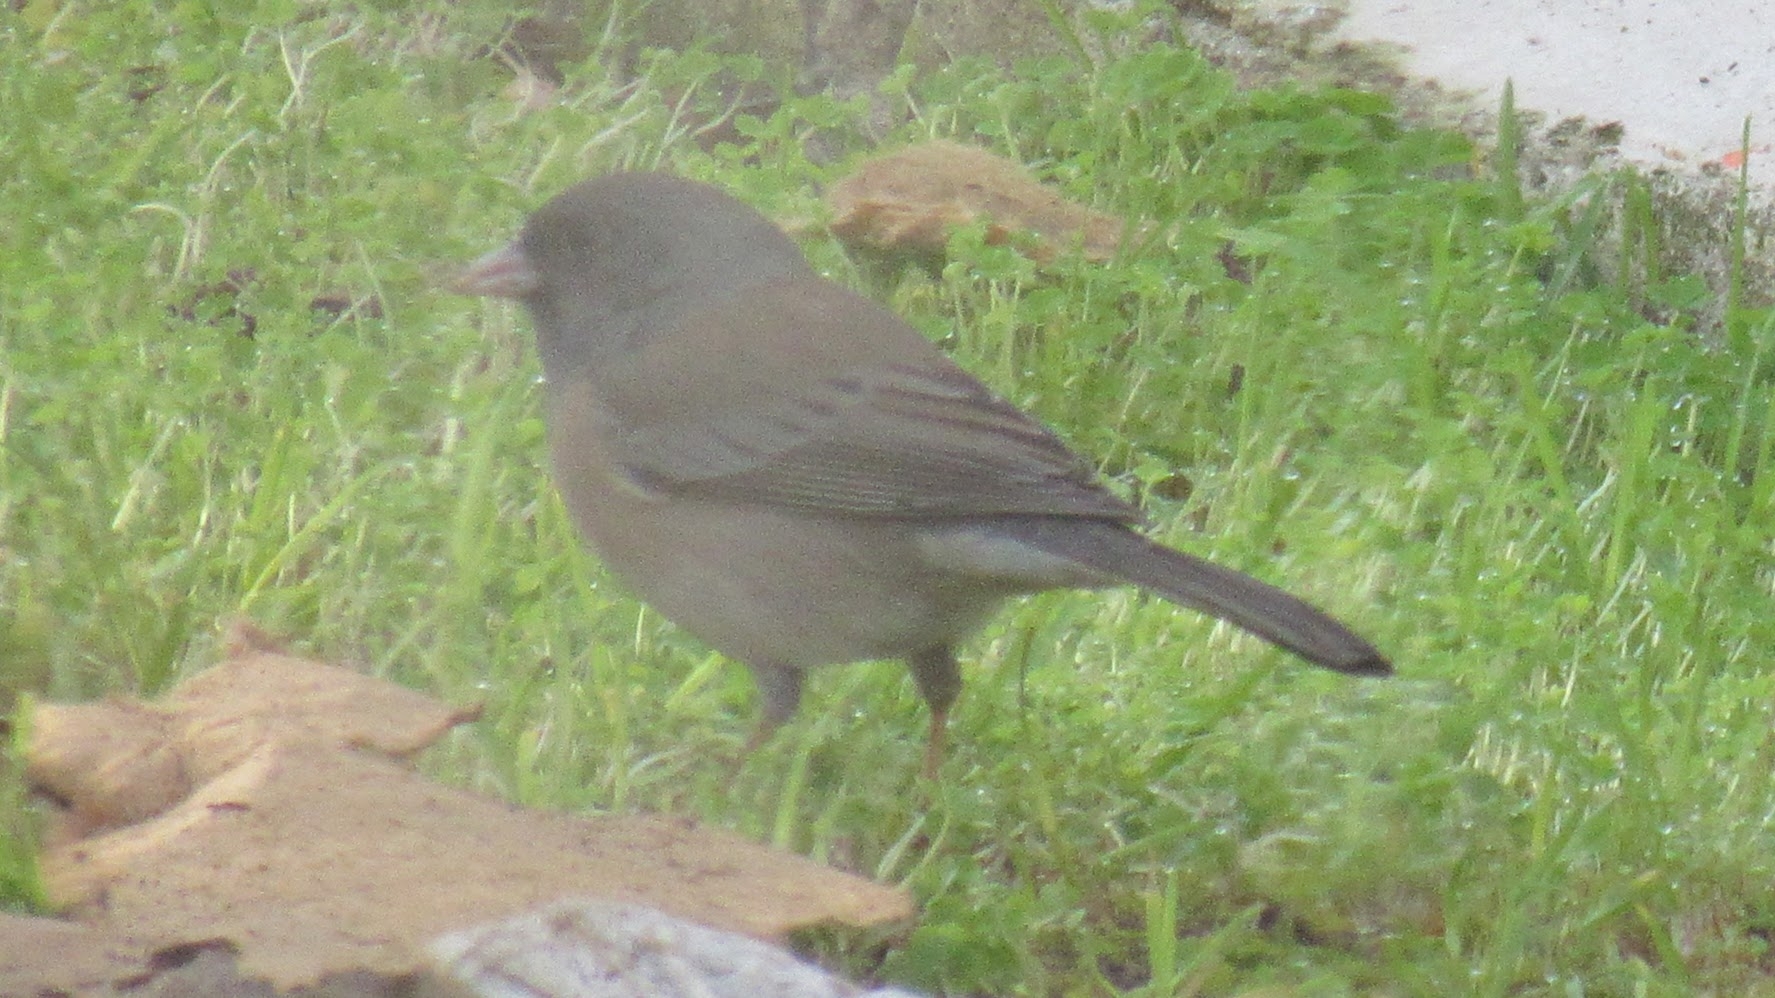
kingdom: Animalia
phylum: Chordata
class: Aves
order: Passeriformes
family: Passerellidae
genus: Junco
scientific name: Junco hyemalis
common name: Dark-eyed junco
